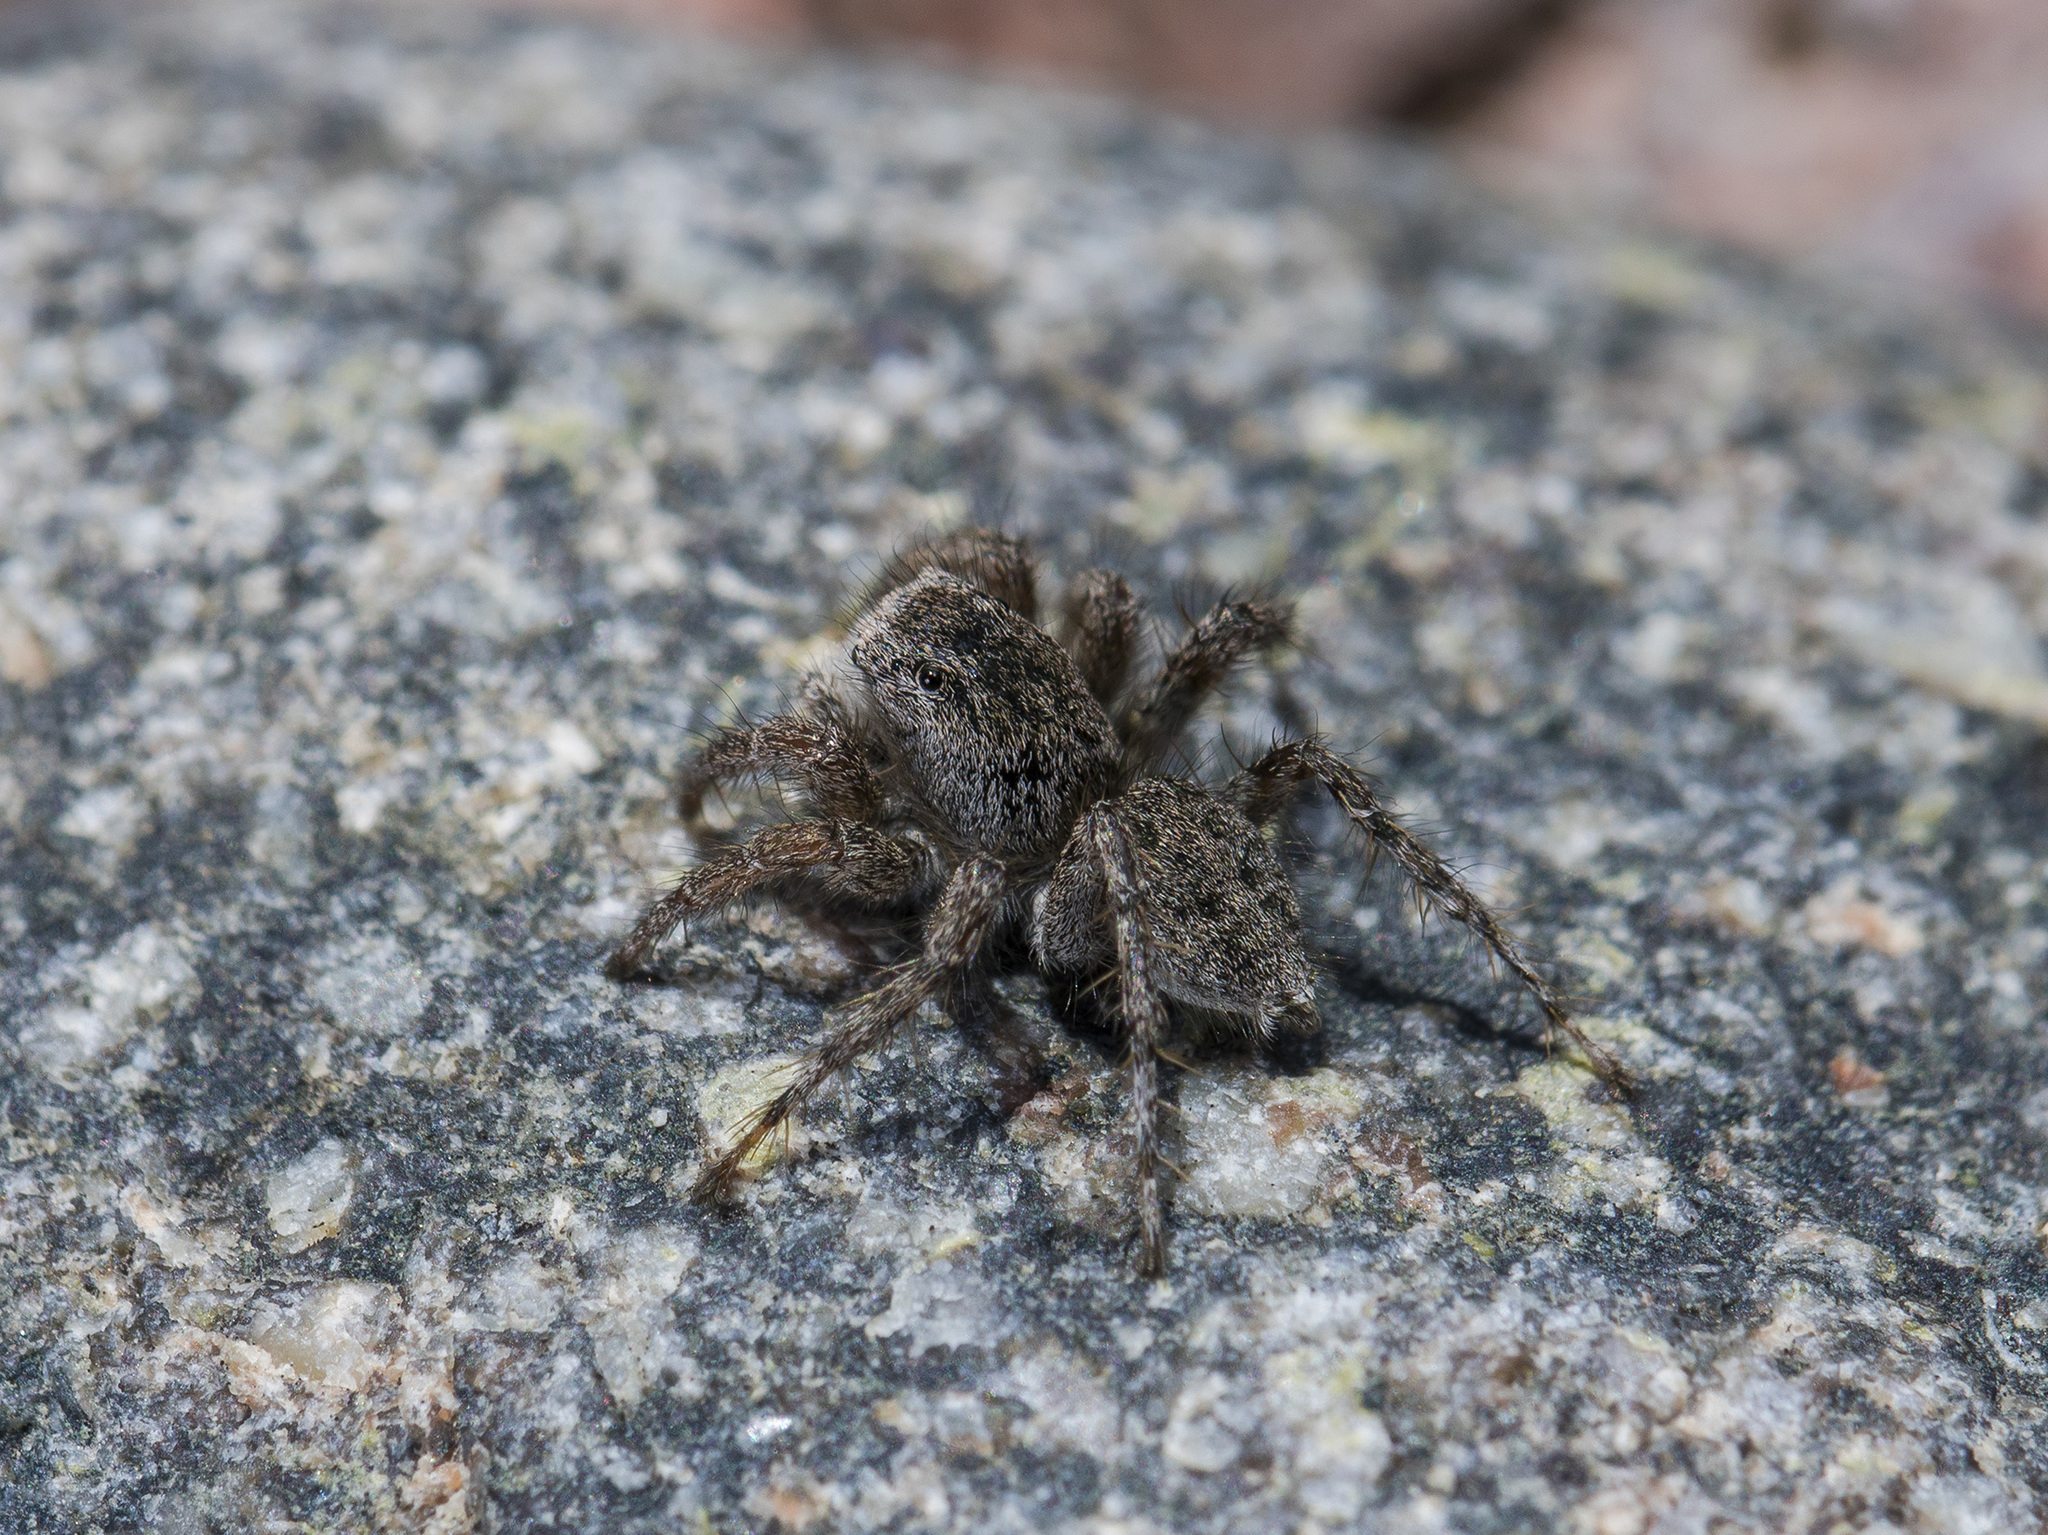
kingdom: Animalia
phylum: Arthropoda
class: Arachnida
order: Araneae
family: Salticidae
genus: Aelurillus
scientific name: Aelurillus dubatolovi
